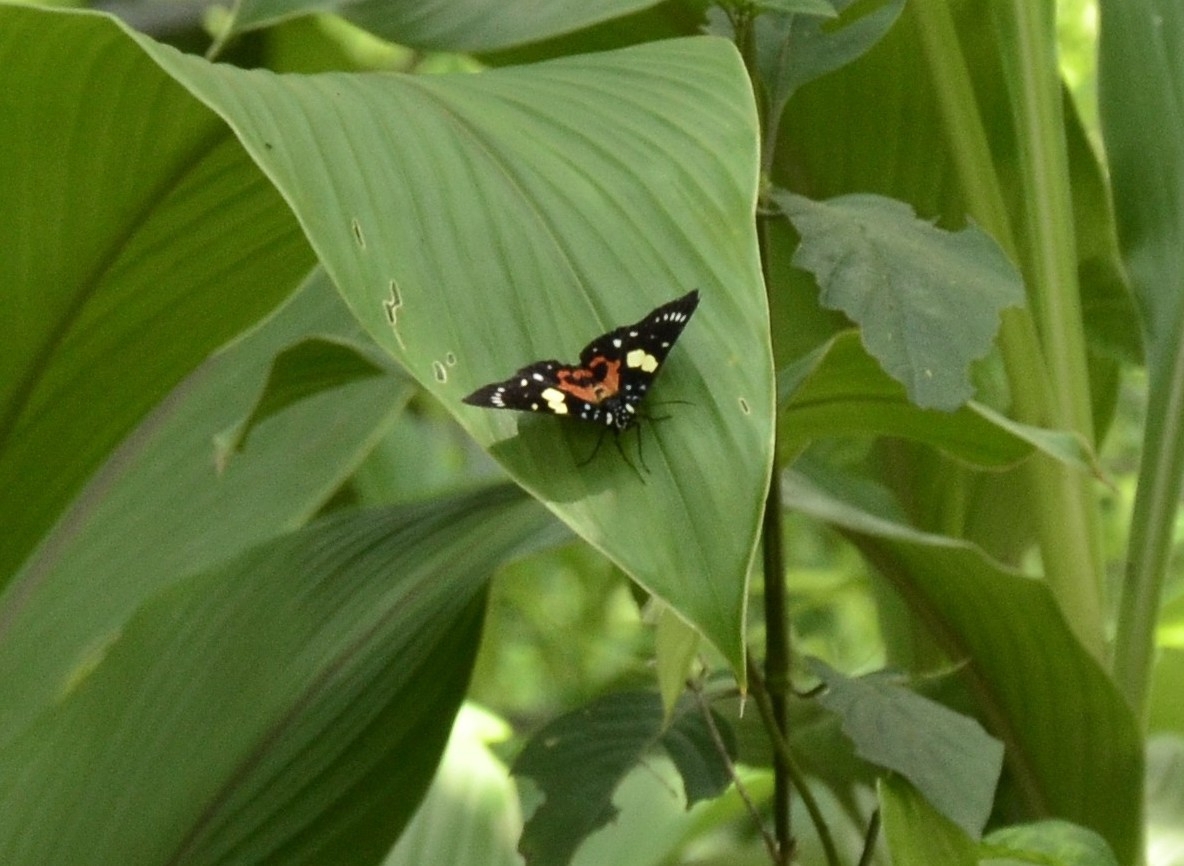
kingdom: Animalia
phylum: Arthropoda
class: Insecta
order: Lepidoptera
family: Noctuidae
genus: Episteme
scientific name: Episteme maculatrix
